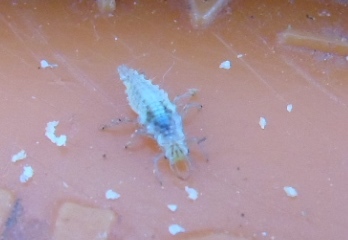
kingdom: Animalia
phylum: Arthropoda
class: Insecta
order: Neuroptera
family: Chrysopidae
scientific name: Chrysopidae
